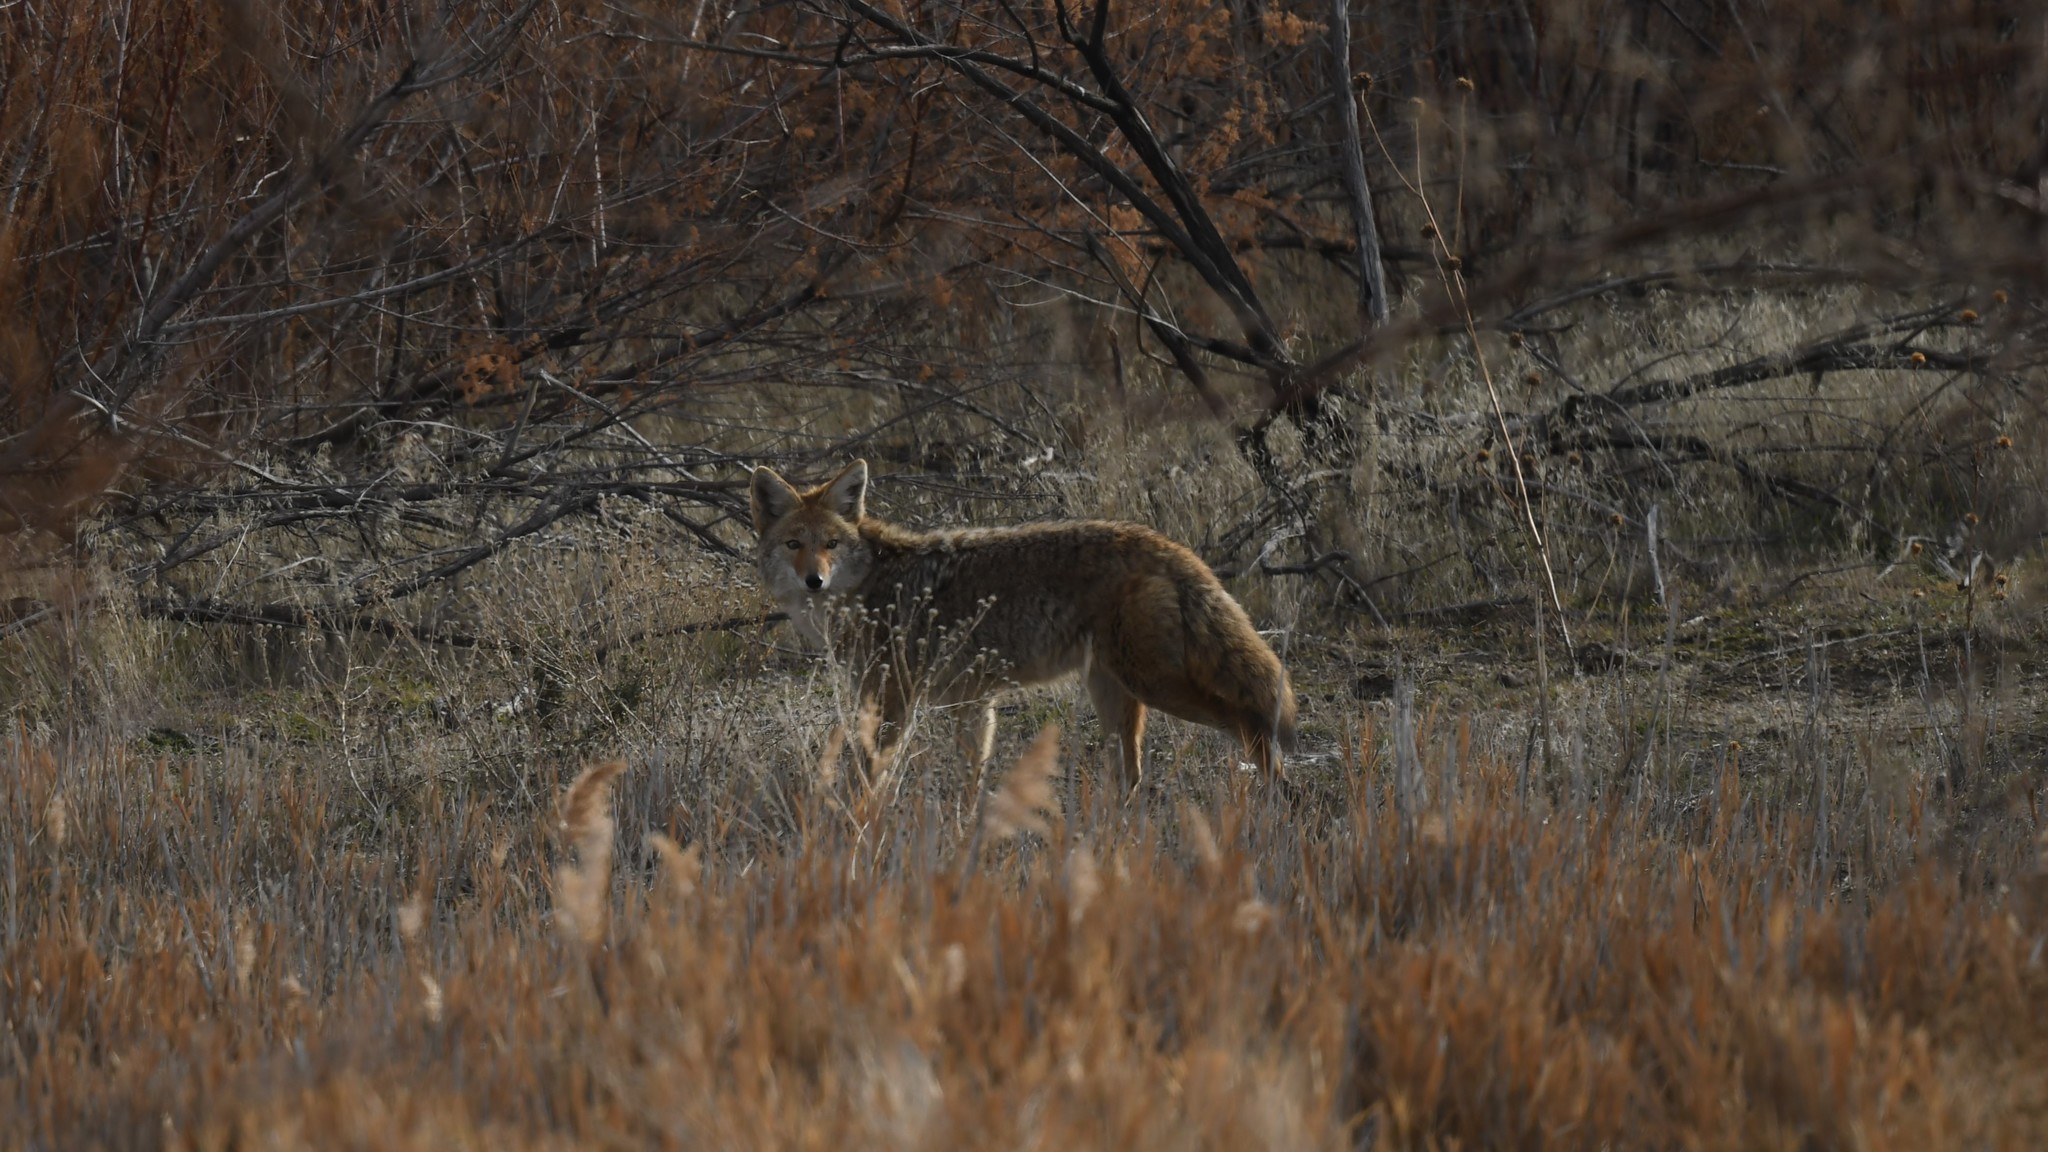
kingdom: Animalia
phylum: Chordata
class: Mammalia
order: Carnivora
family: Canidae
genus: Canis
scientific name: Canis latrans
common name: Coyote
